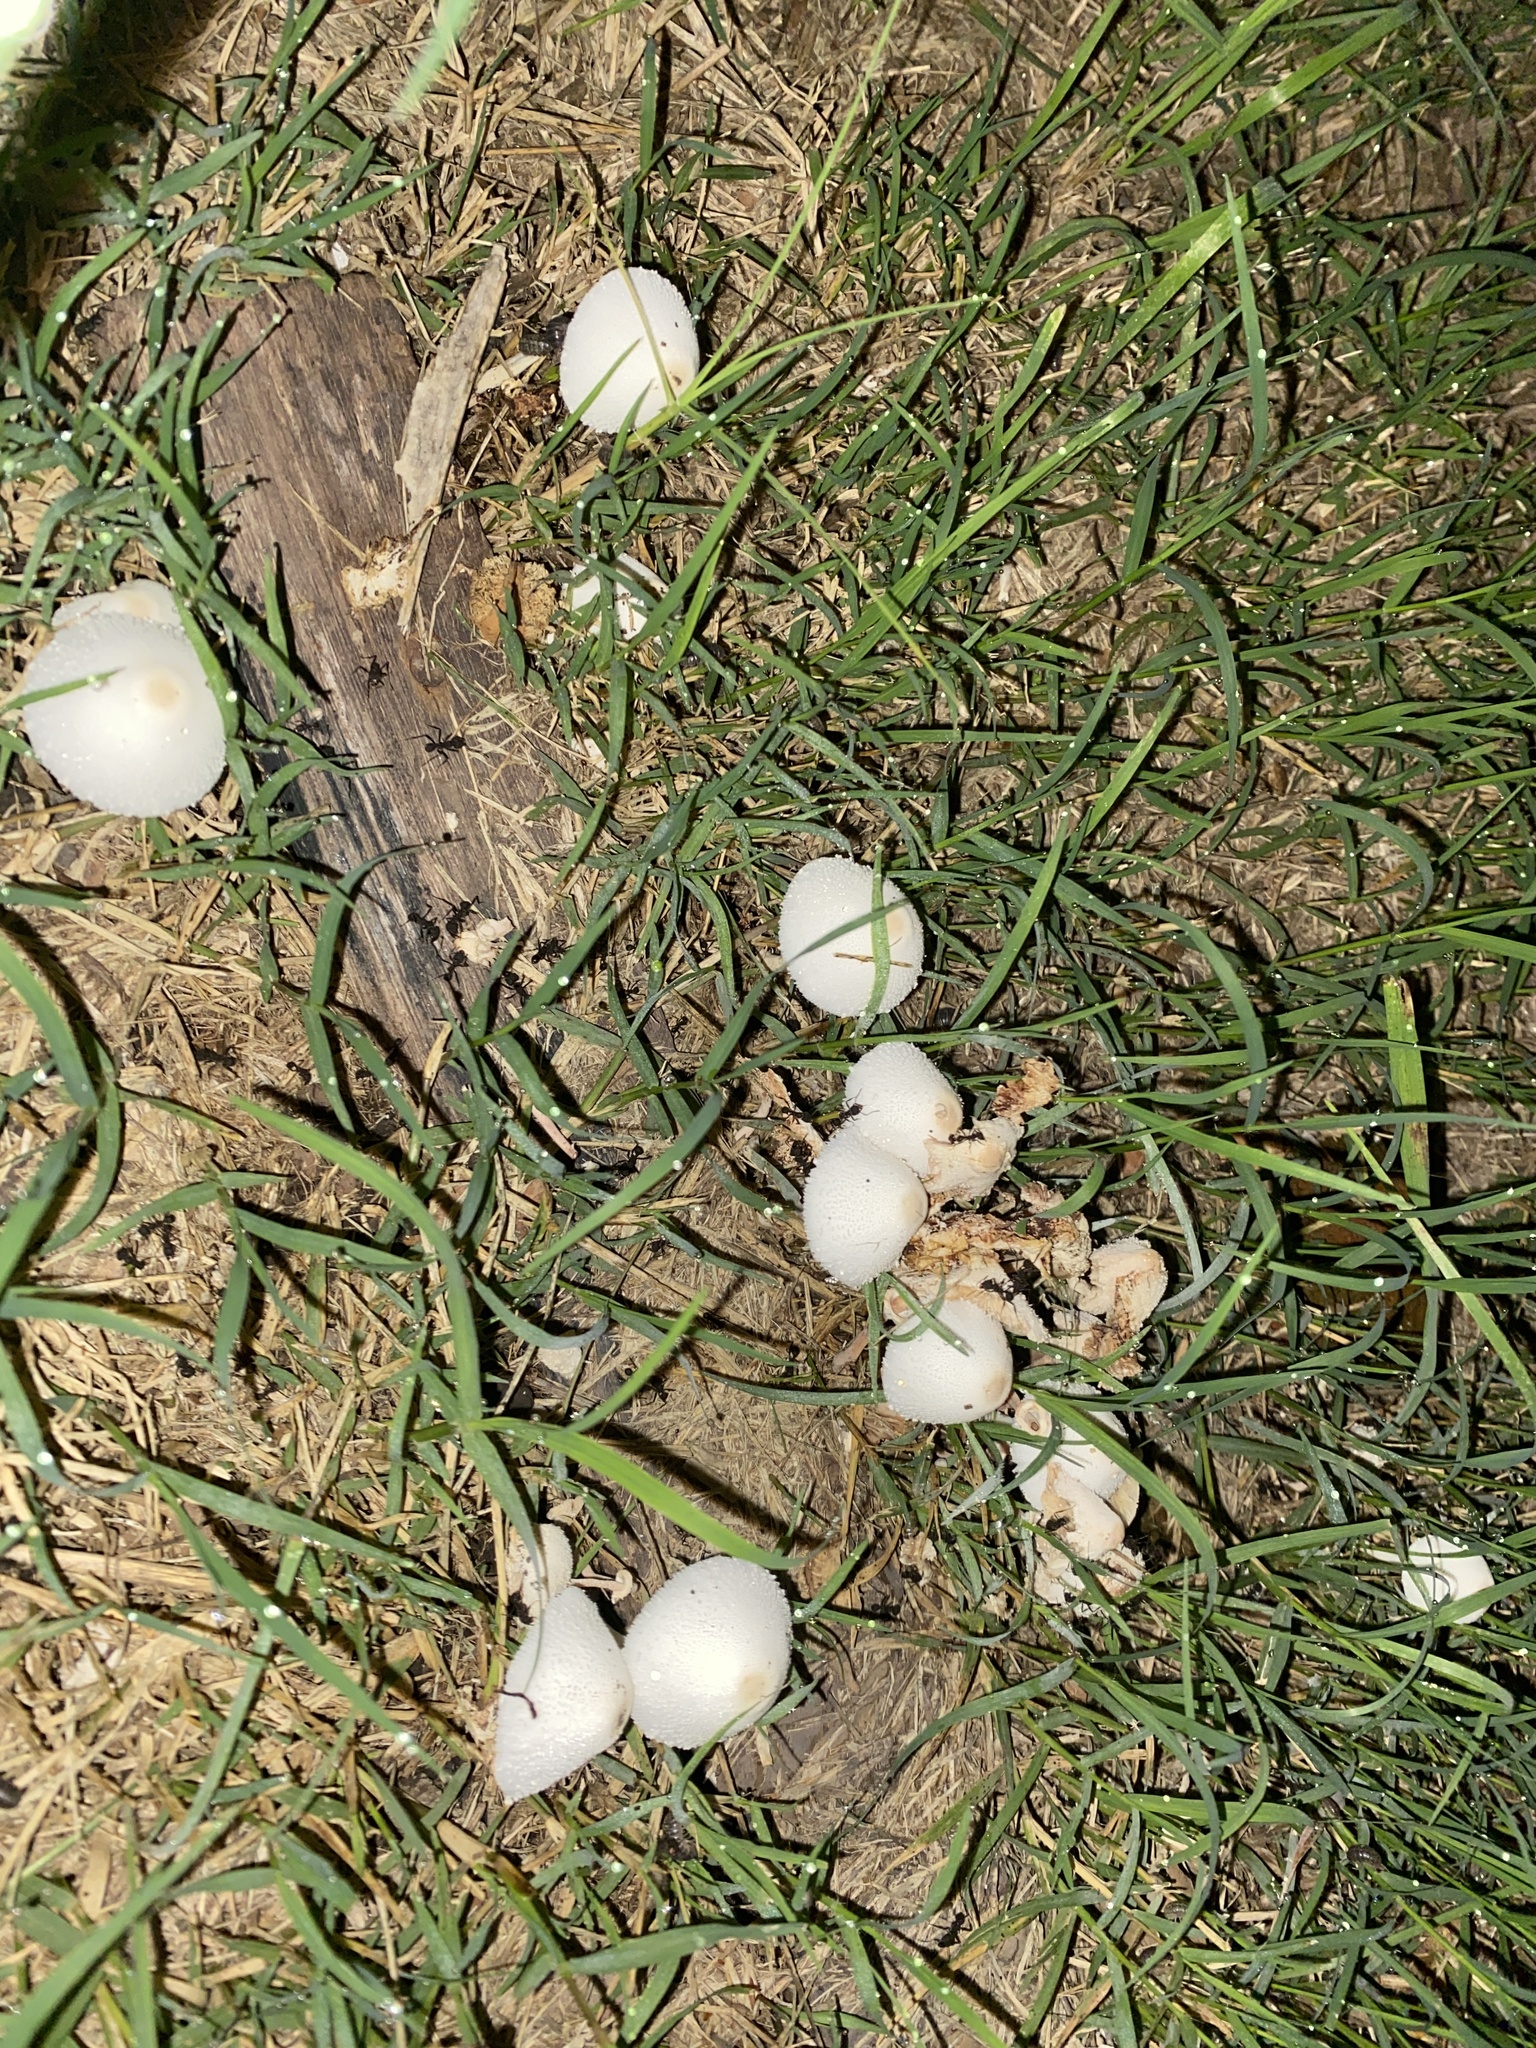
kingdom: Fungi
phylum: Basidiomycota
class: Agaricomycetes
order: Agaricales
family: Agaricaceae
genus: Leucocoprinus
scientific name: Leucocoprinus cepistipes
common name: Onion-stalk parasol
